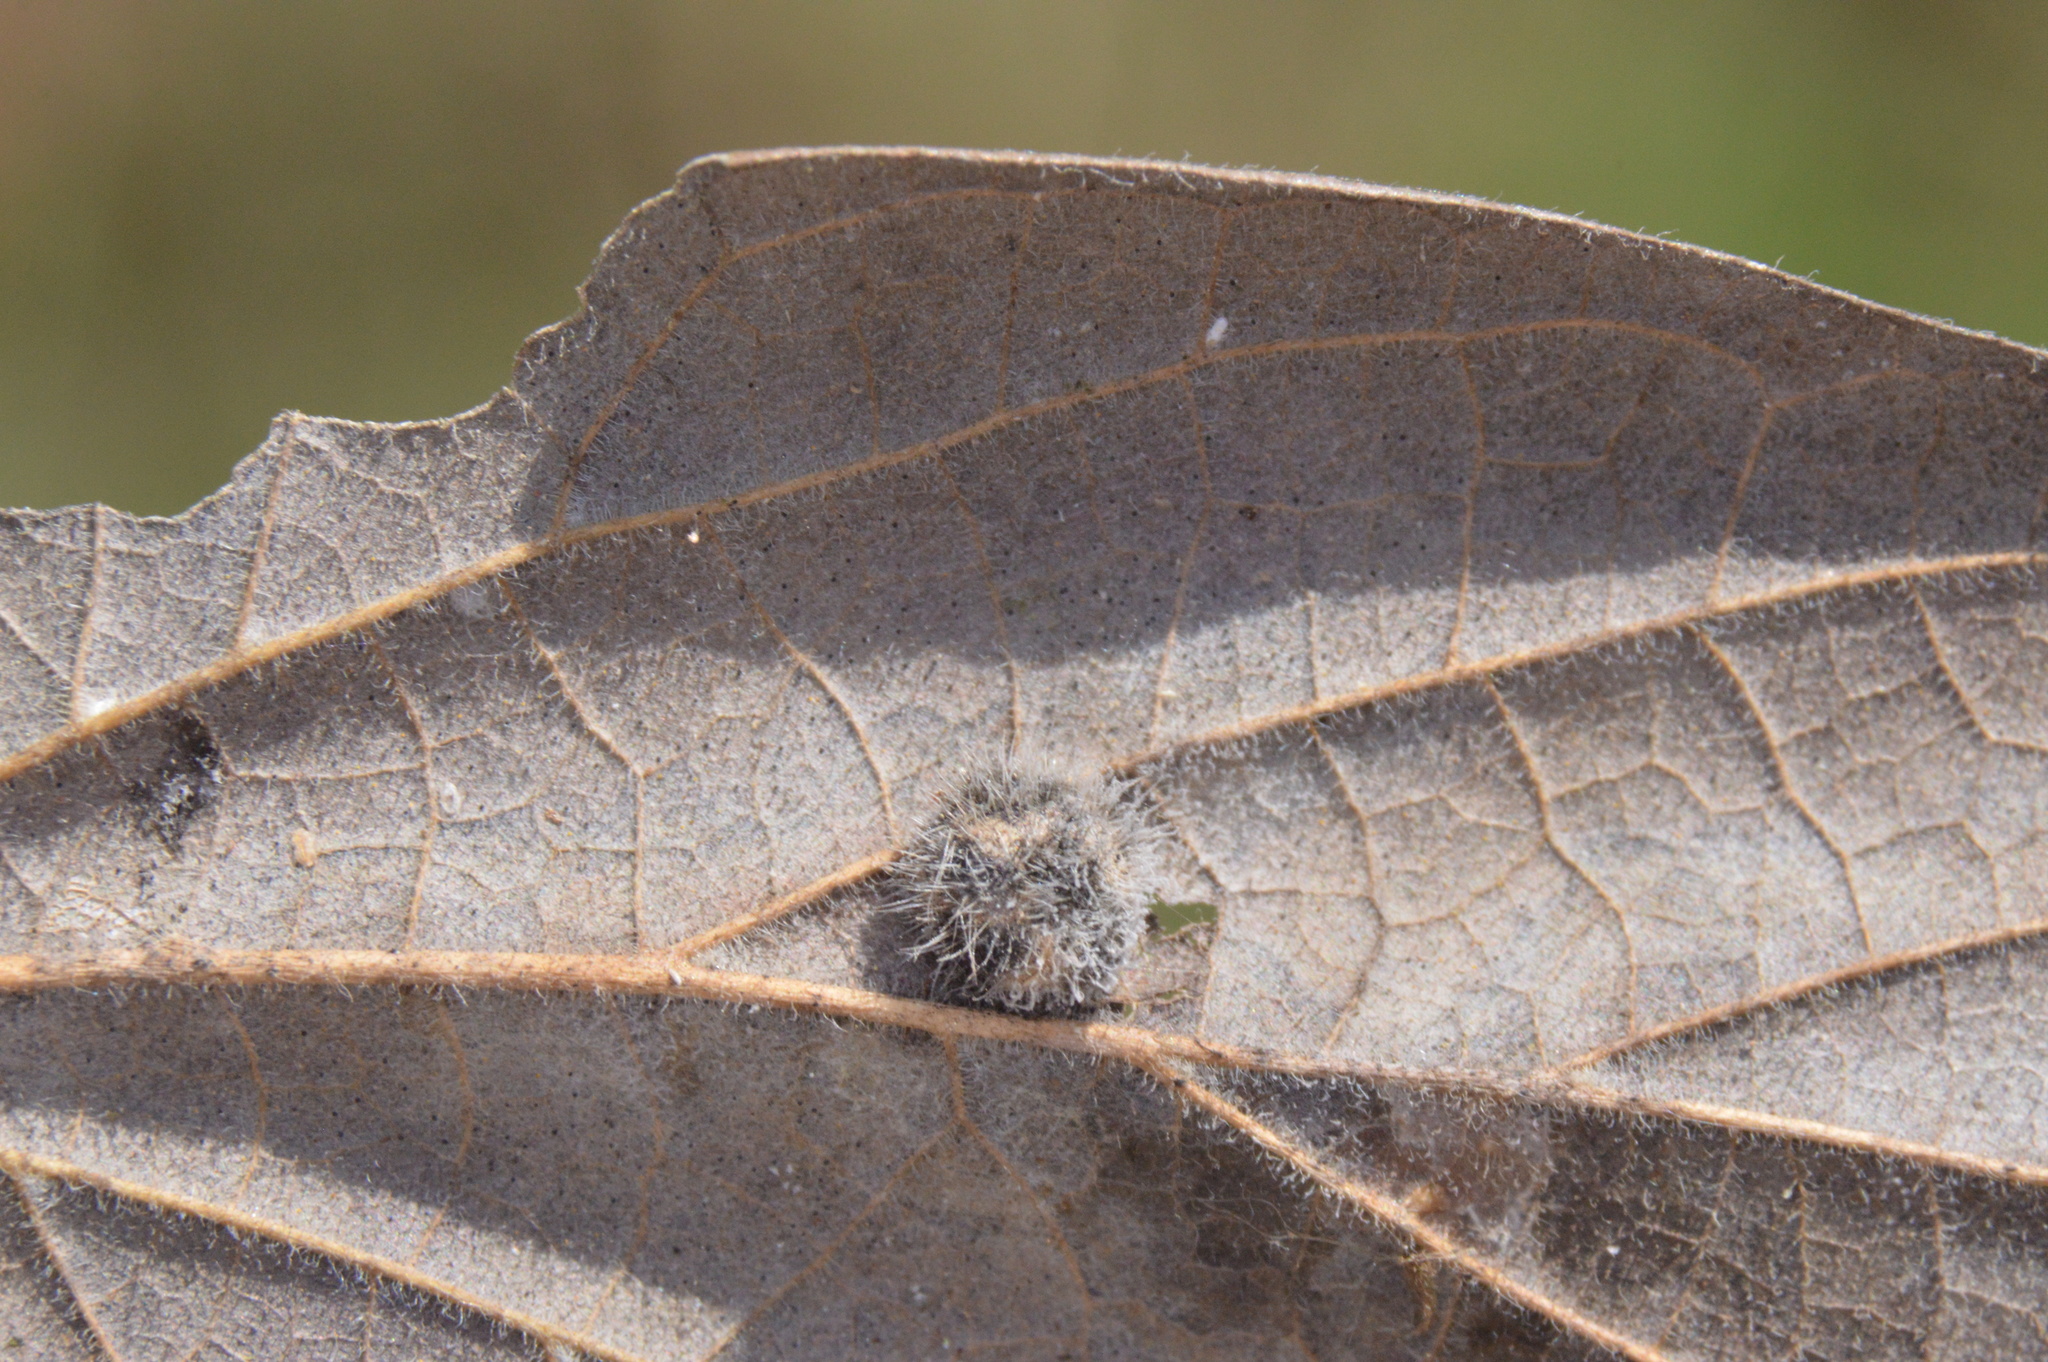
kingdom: Animalia
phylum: Arthropoda
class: Insecta
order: Diptera
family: Cecidomyiidae
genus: Celticecis
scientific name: Celticecis pubescens
